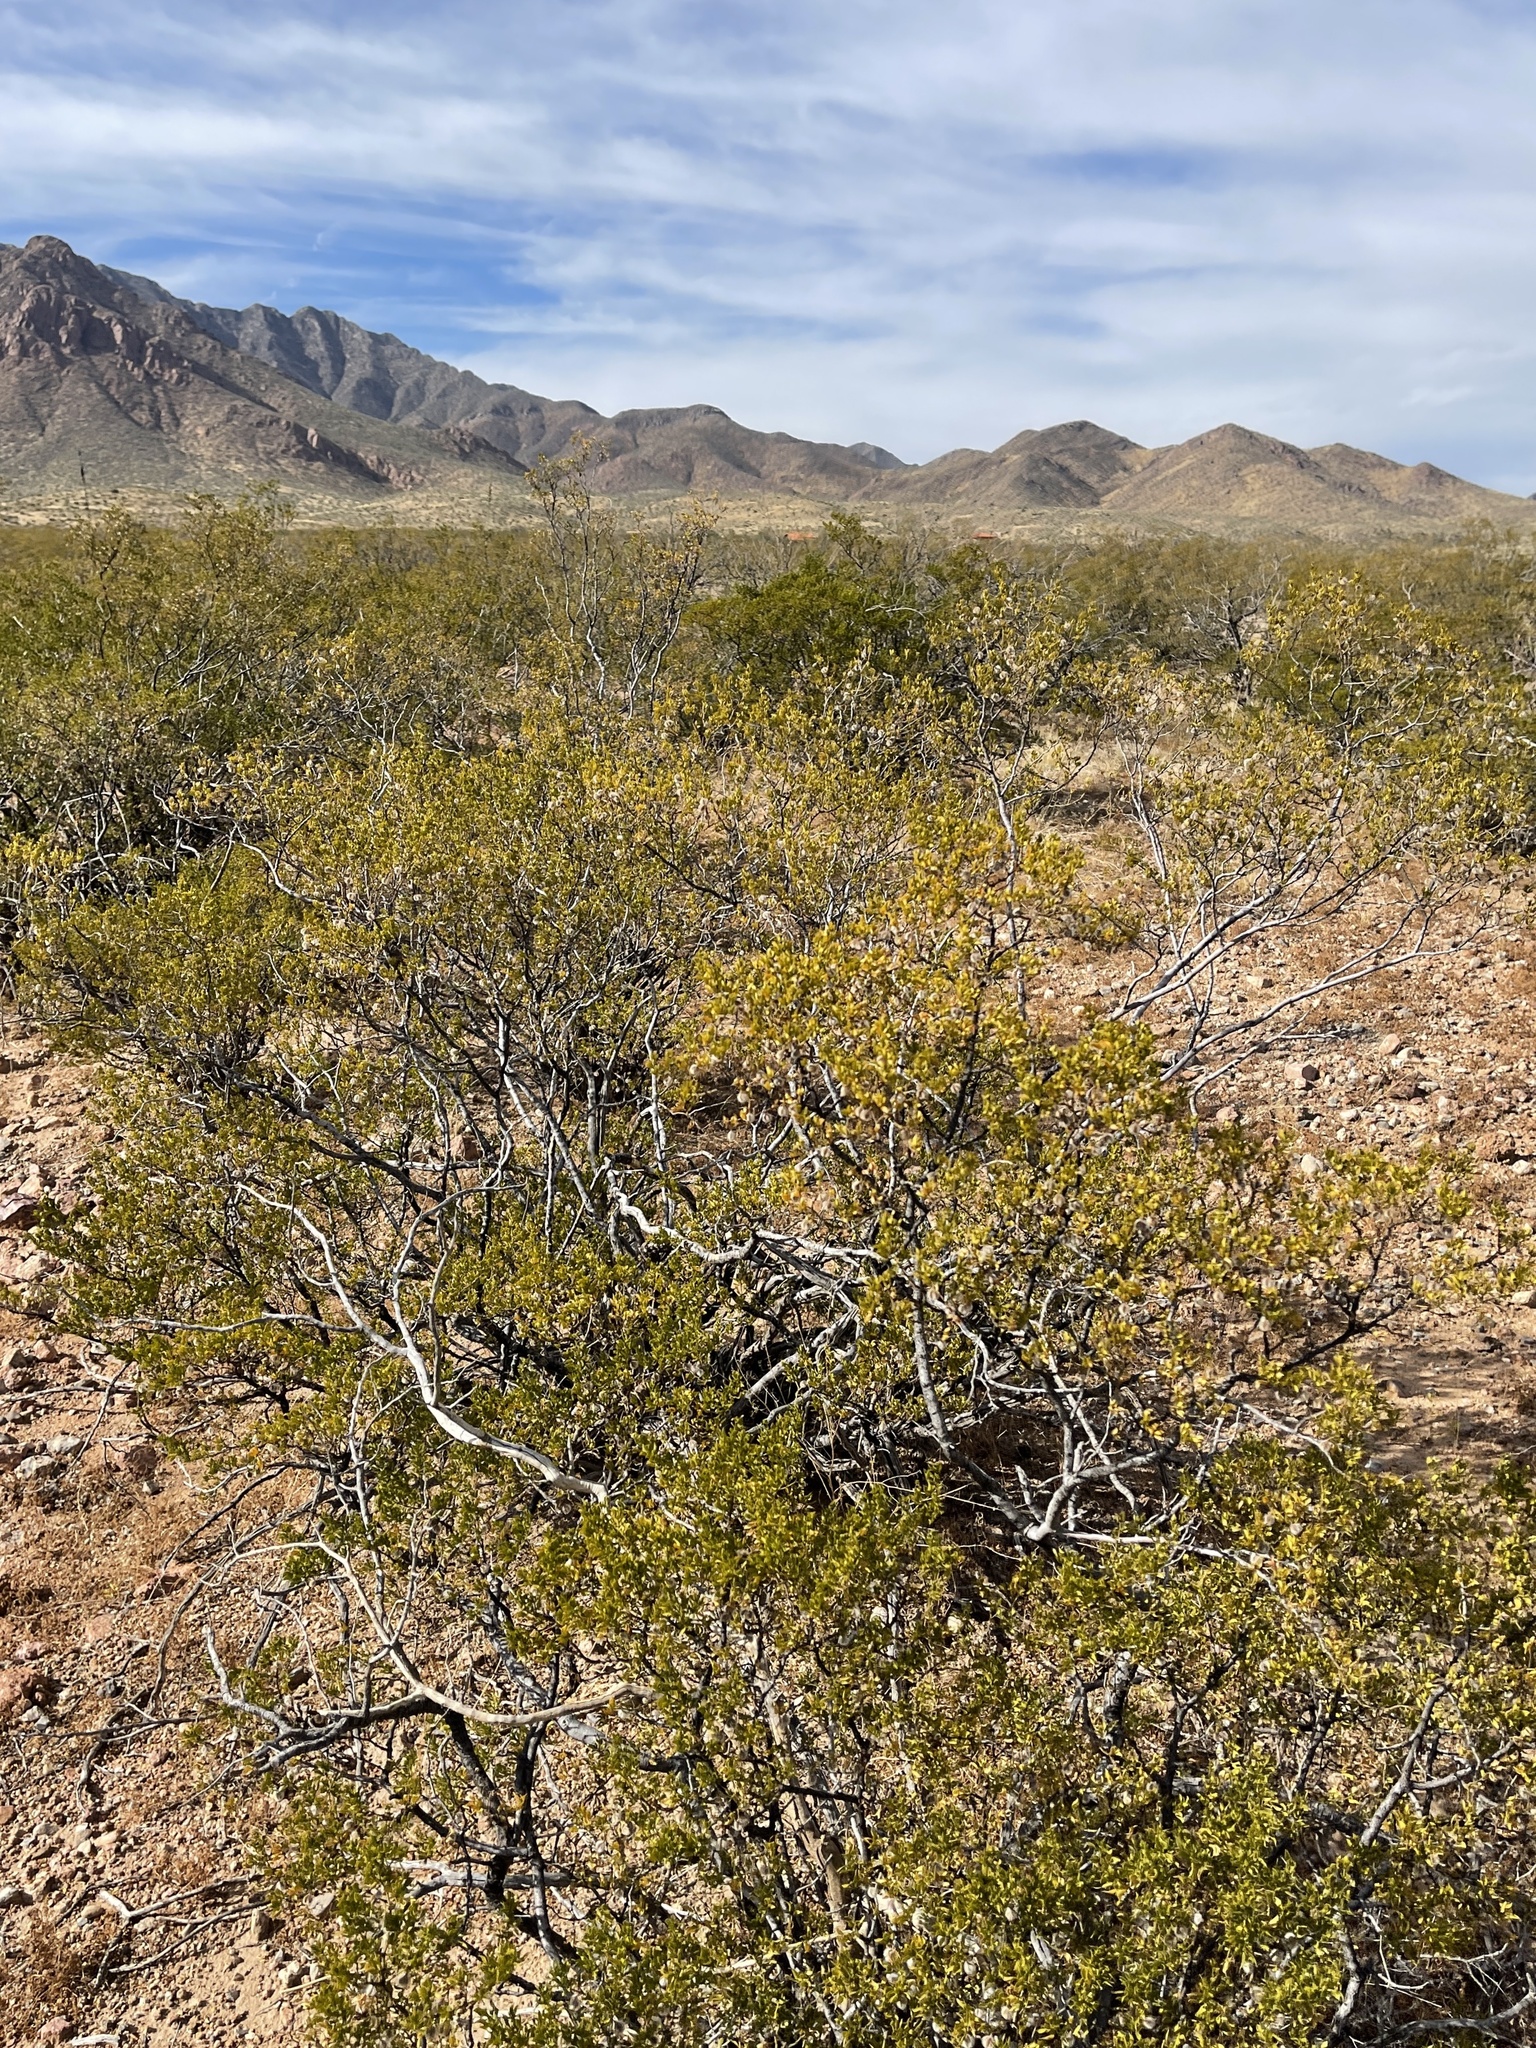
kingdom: Plantae
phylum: Tracheophyta
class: Magnoliopsida
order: Zygophyllales
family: Zygophyllaceae
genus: Larrea
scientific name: Larrea tridentata
